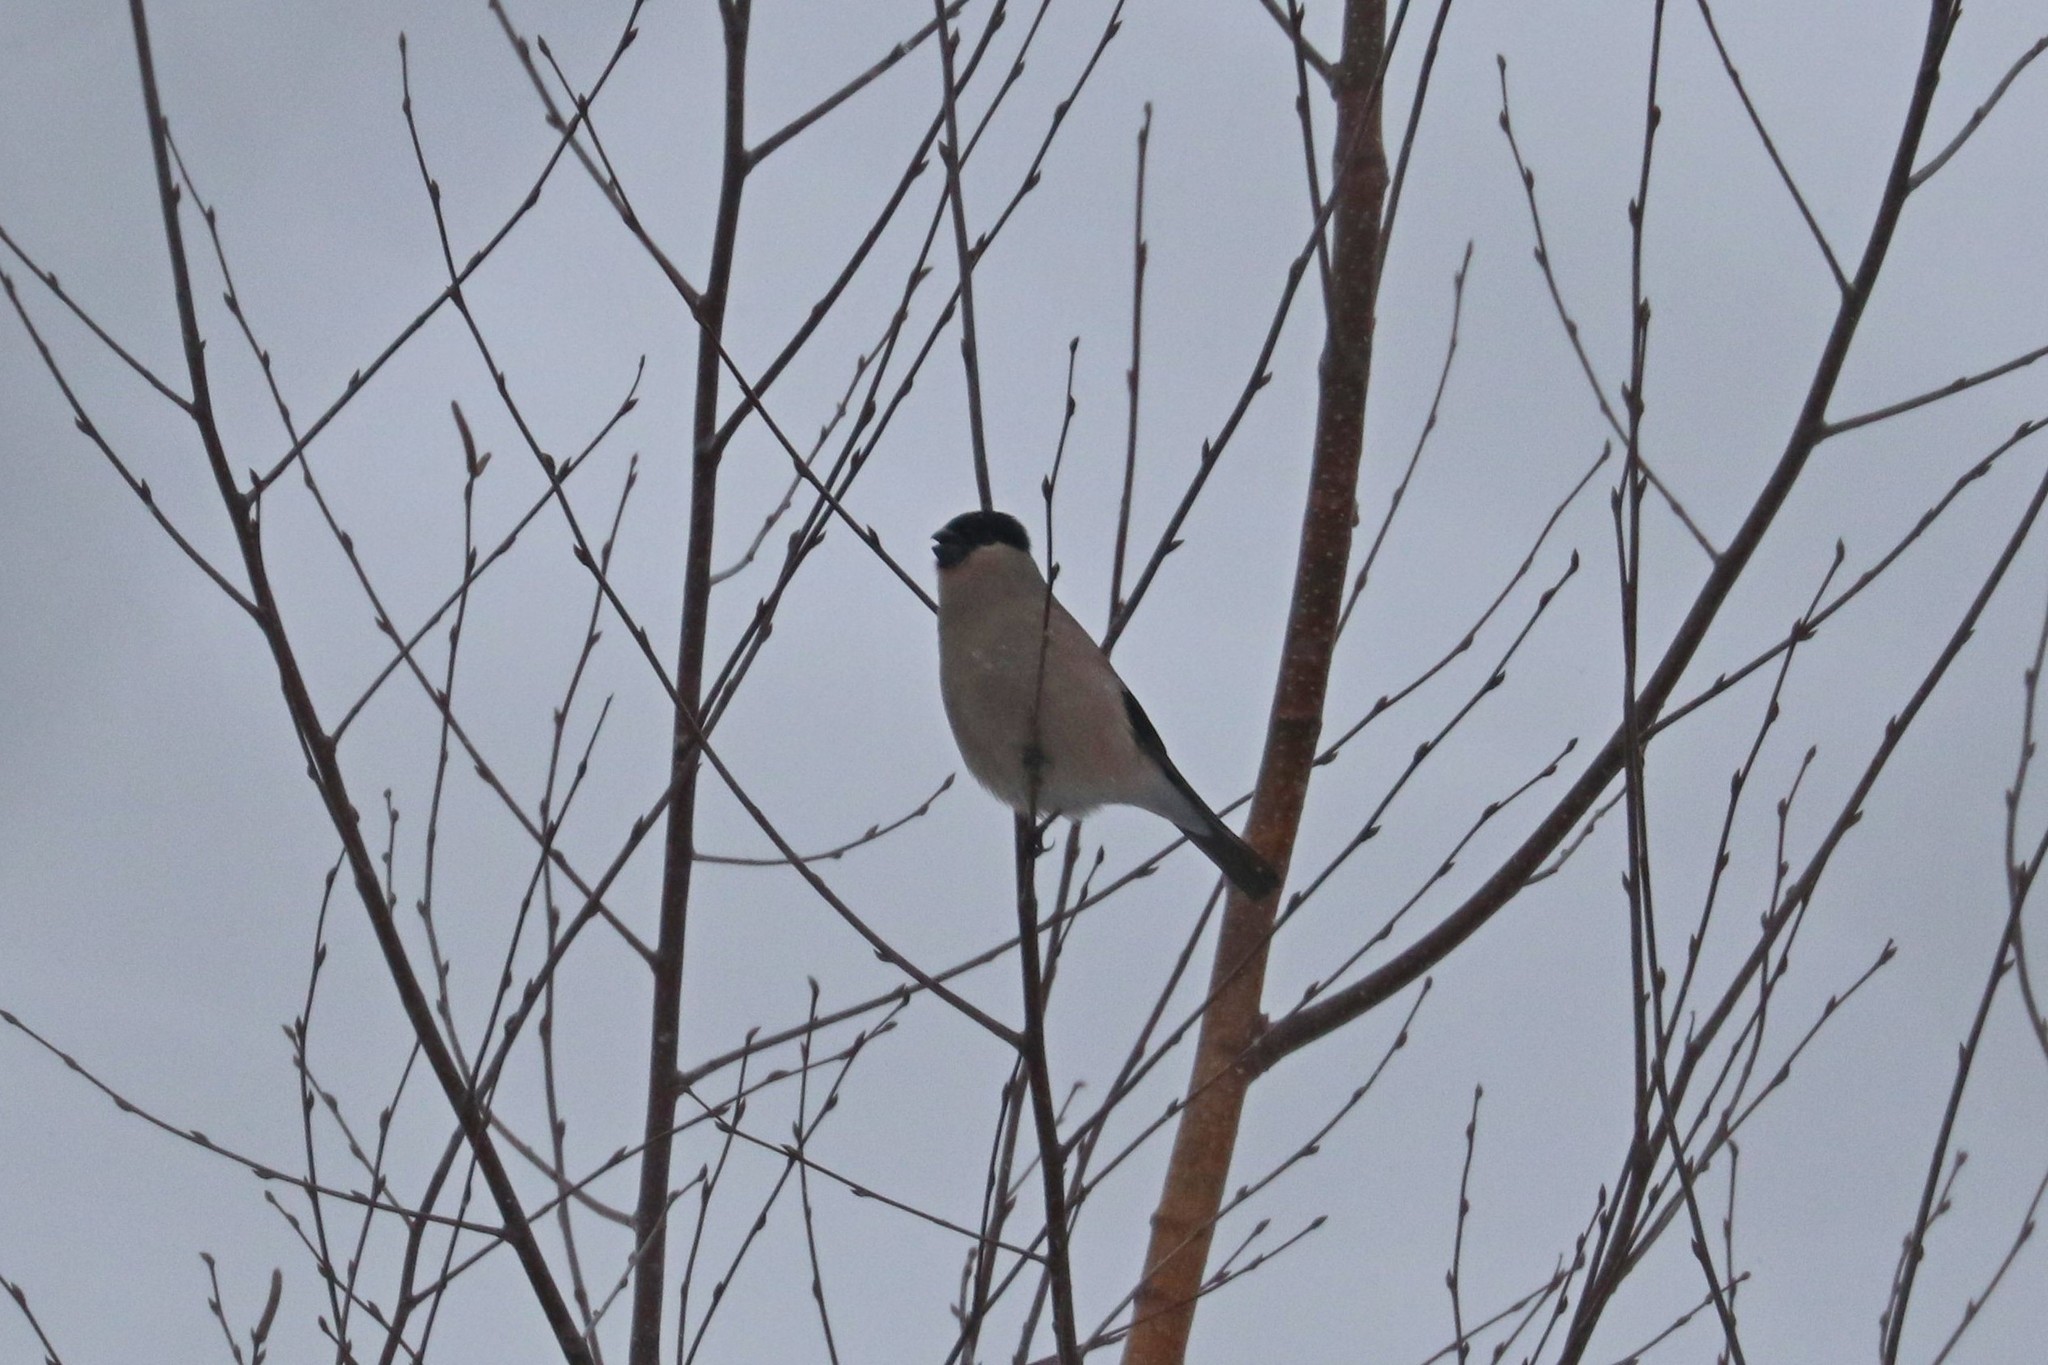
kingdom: Animalia
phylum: Chordata
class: Aves
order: Passeriformes
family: Fringillidae
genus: Pyrrhula
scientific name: Pyrrhula pyrrhula
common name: Eurasian bullfinch
